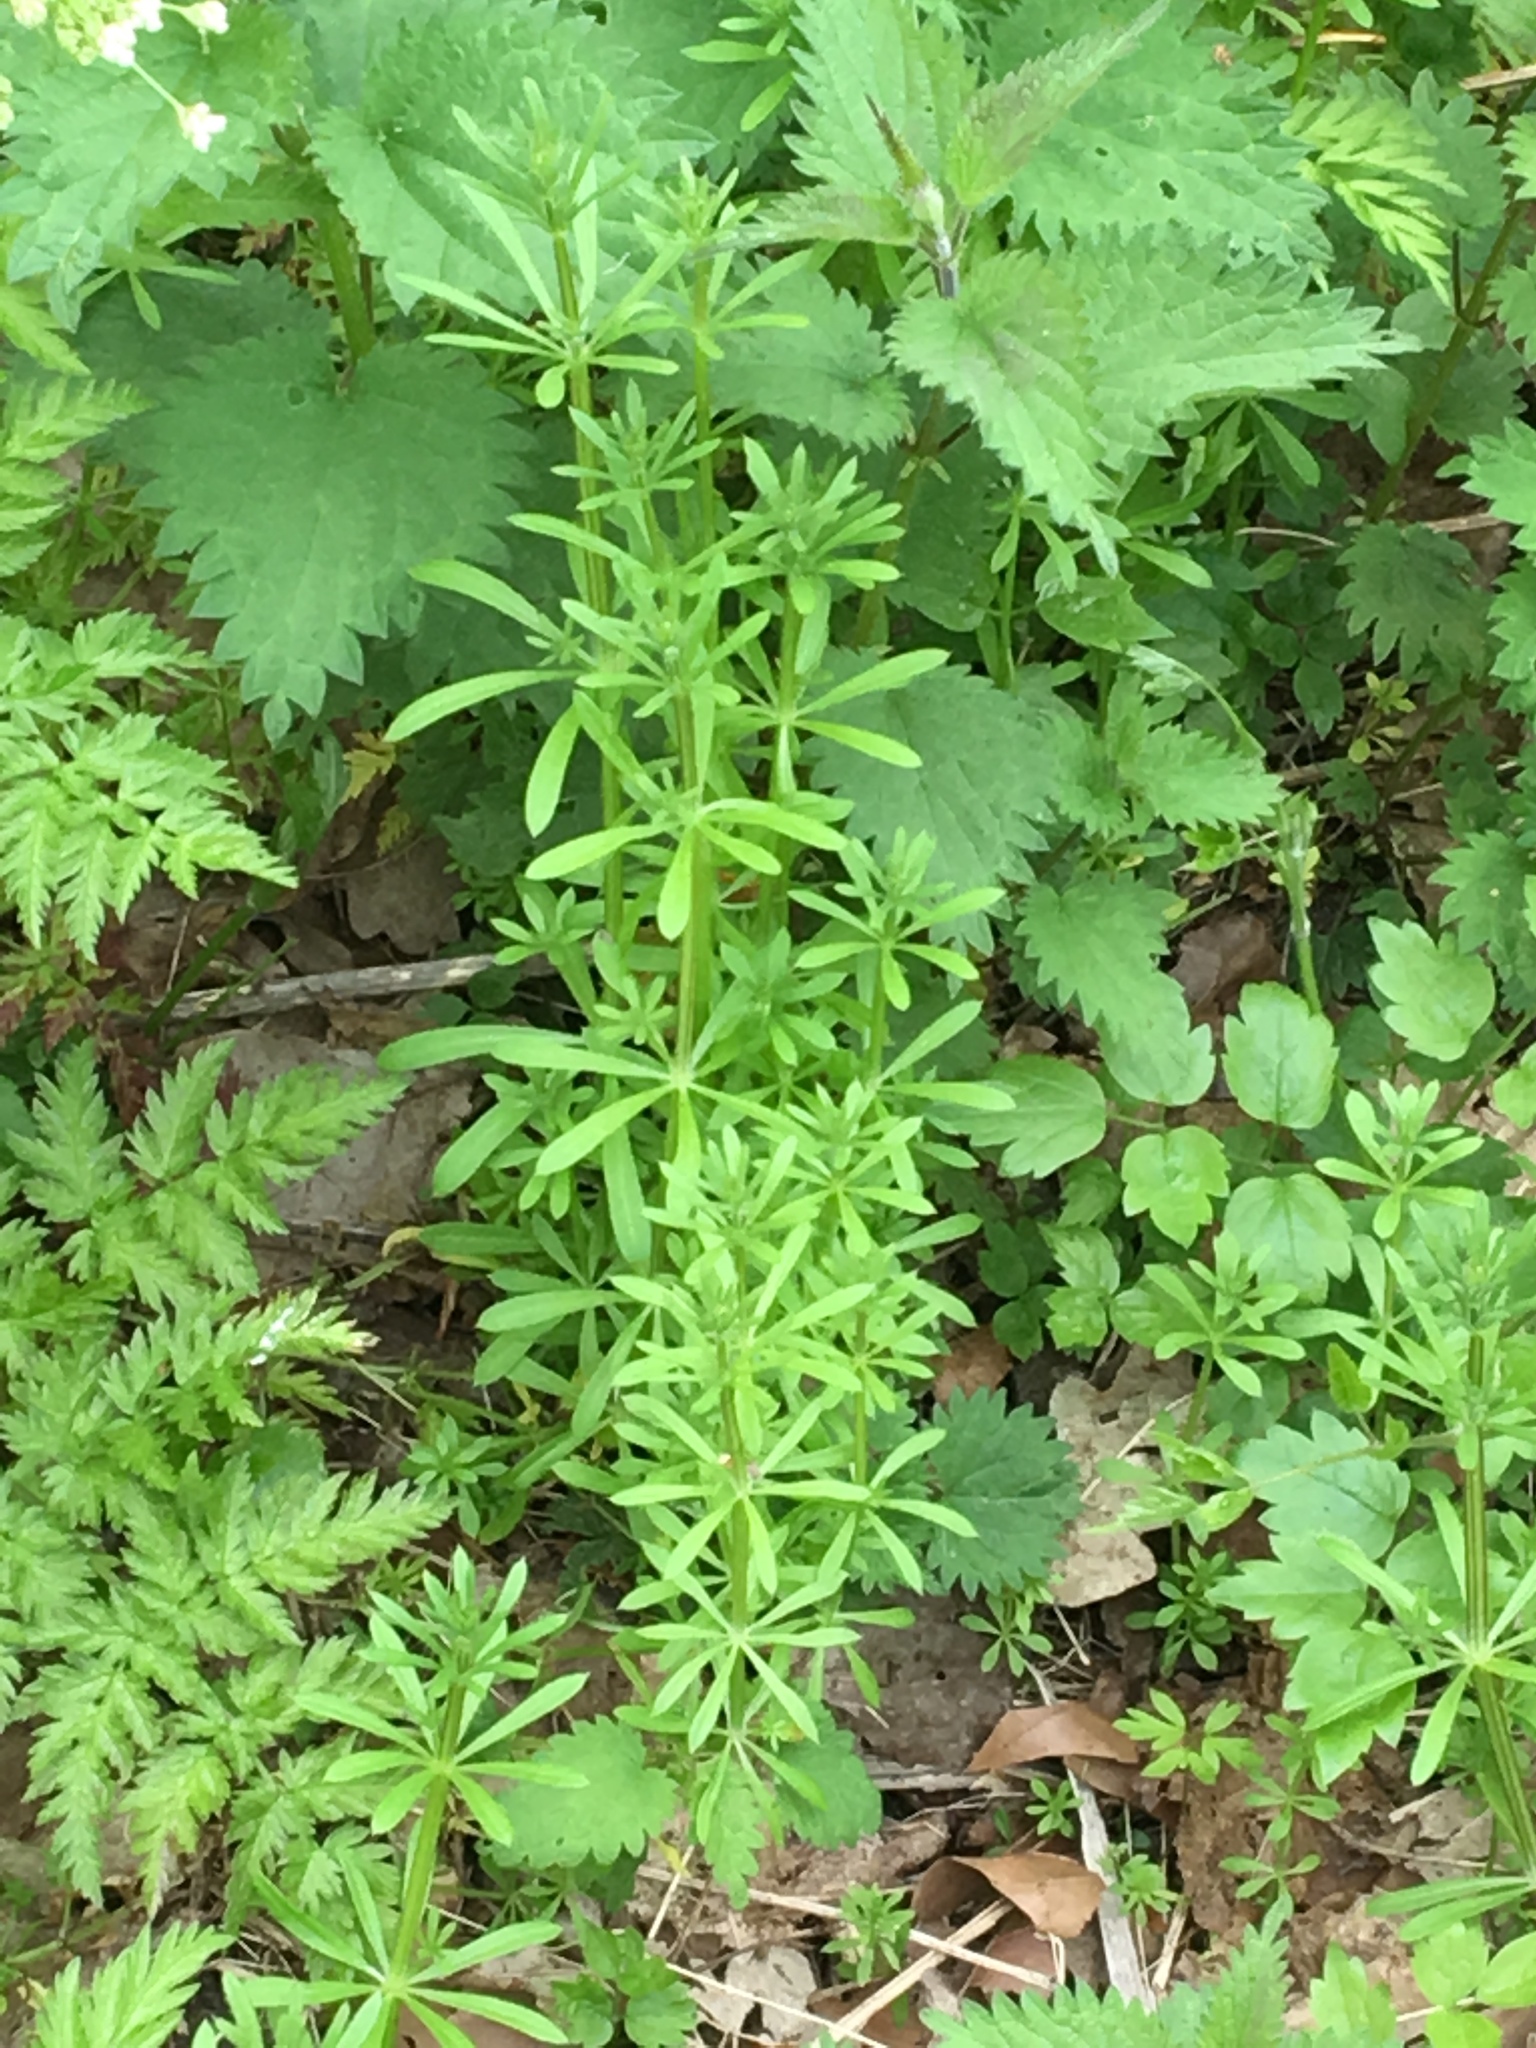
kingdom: Plantae
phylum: Tracheophyta
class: Magnoliopsida
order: Gentianales
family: Rubiaceae
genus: Galium
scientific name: Galium aparine
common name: Cleavers
